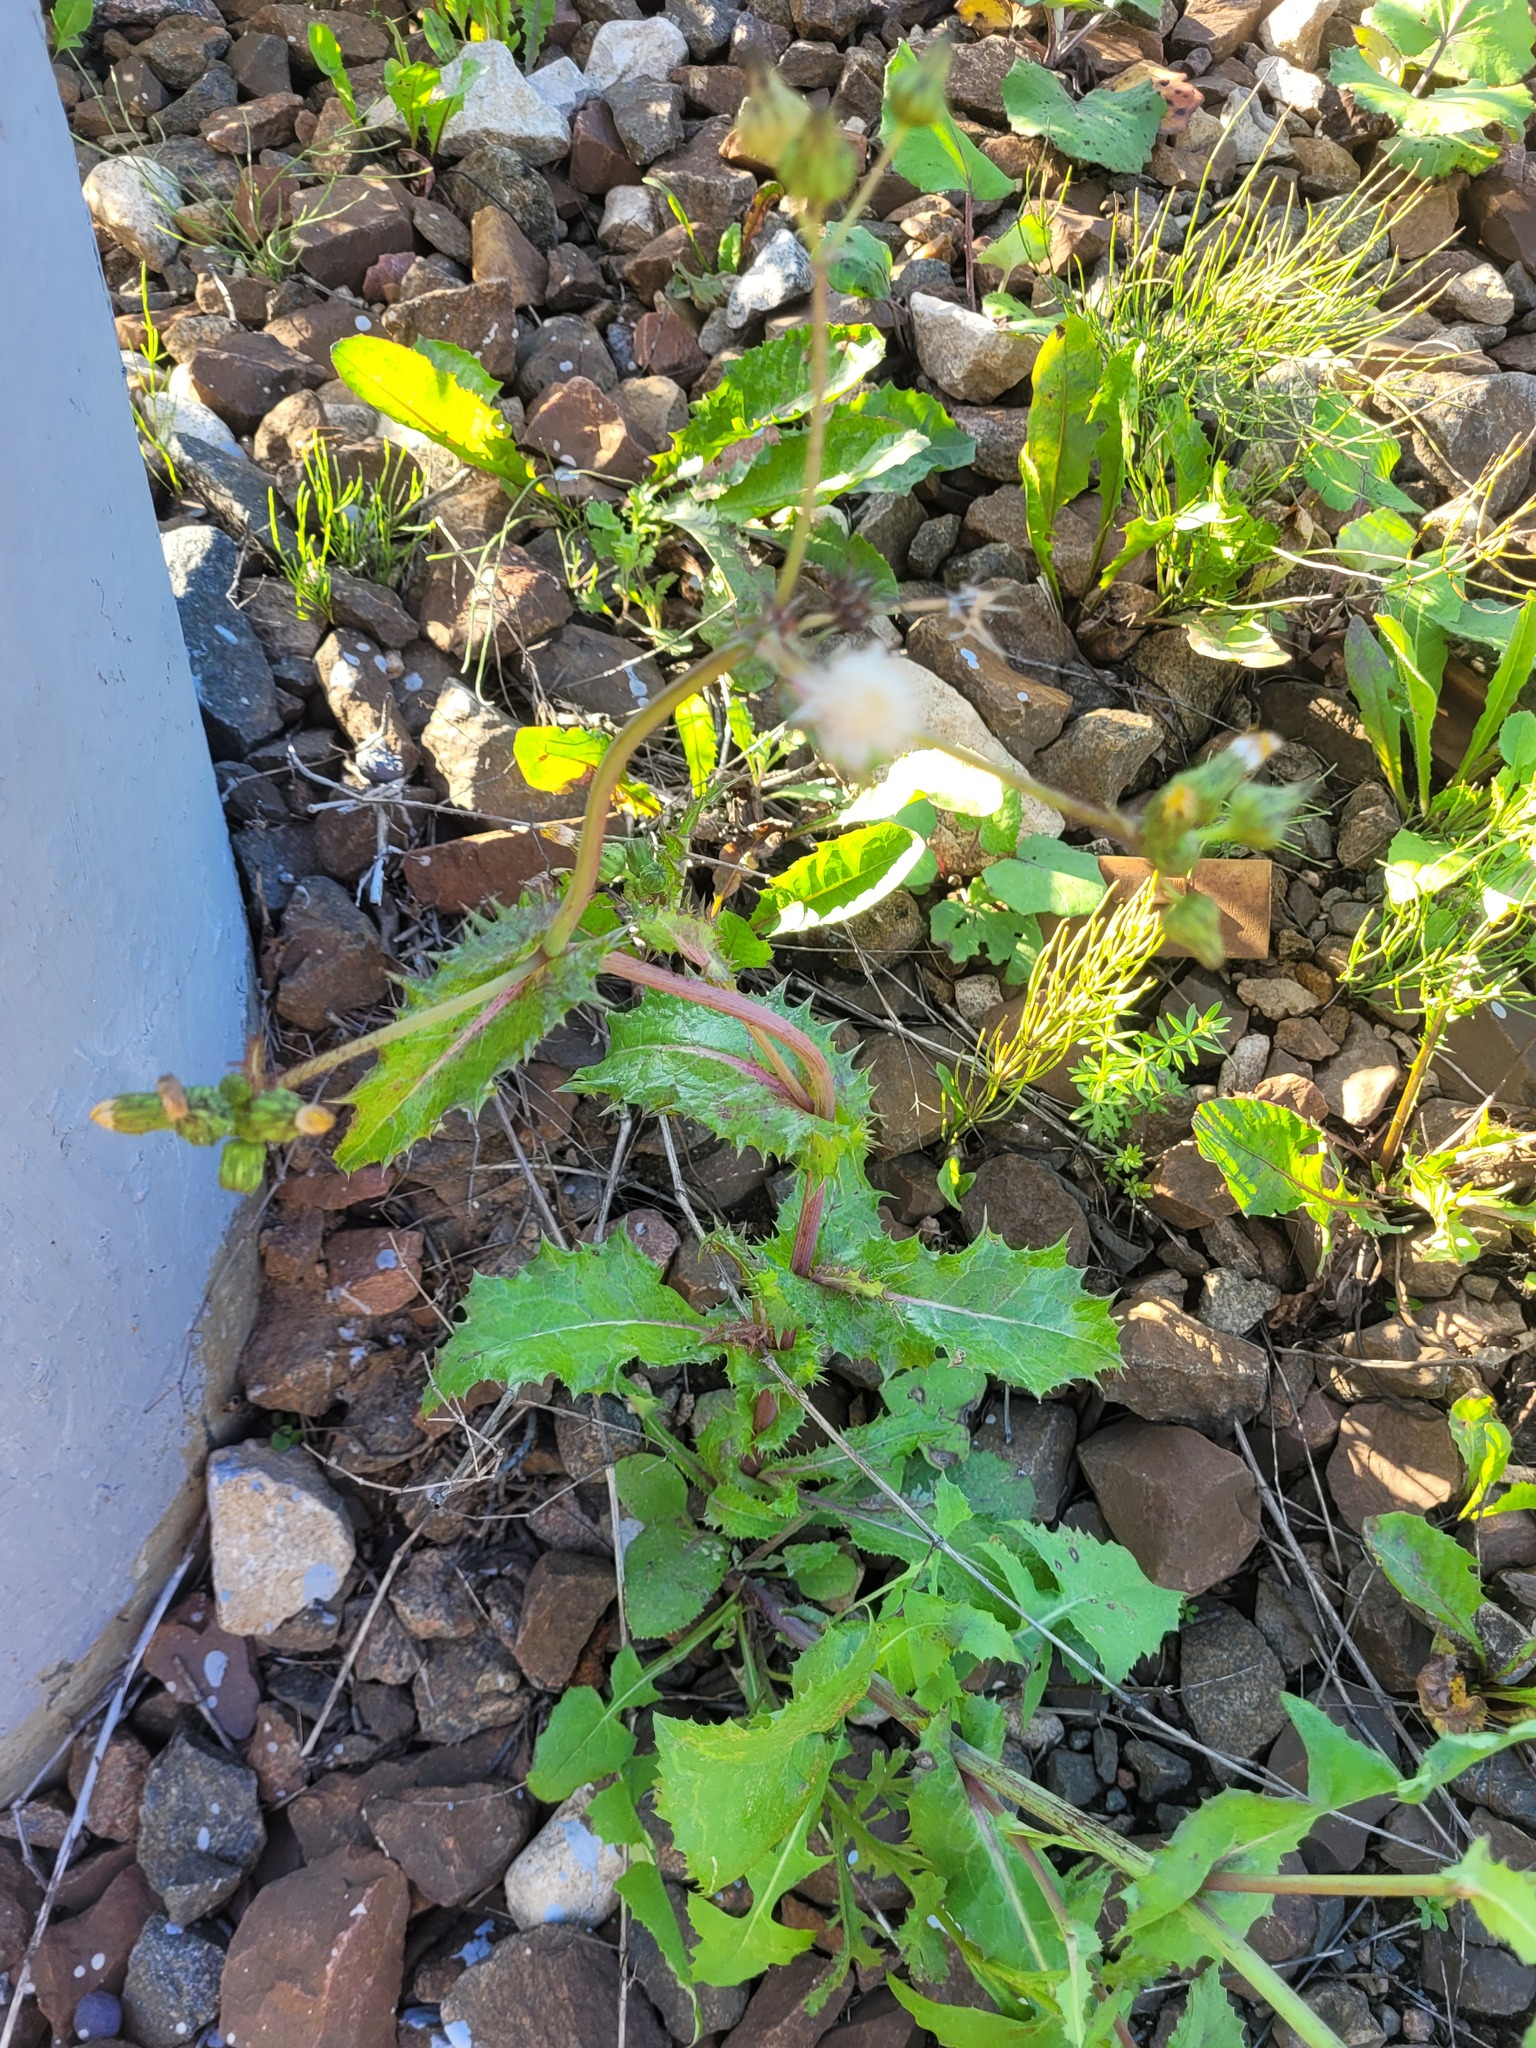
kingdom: Plantae
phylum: Tracheophyta
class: Magnoliopsida
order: Asterales
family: Asteraceae
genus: Sonchus
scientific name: Sonchus asper
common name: Prickly sow-thistle
